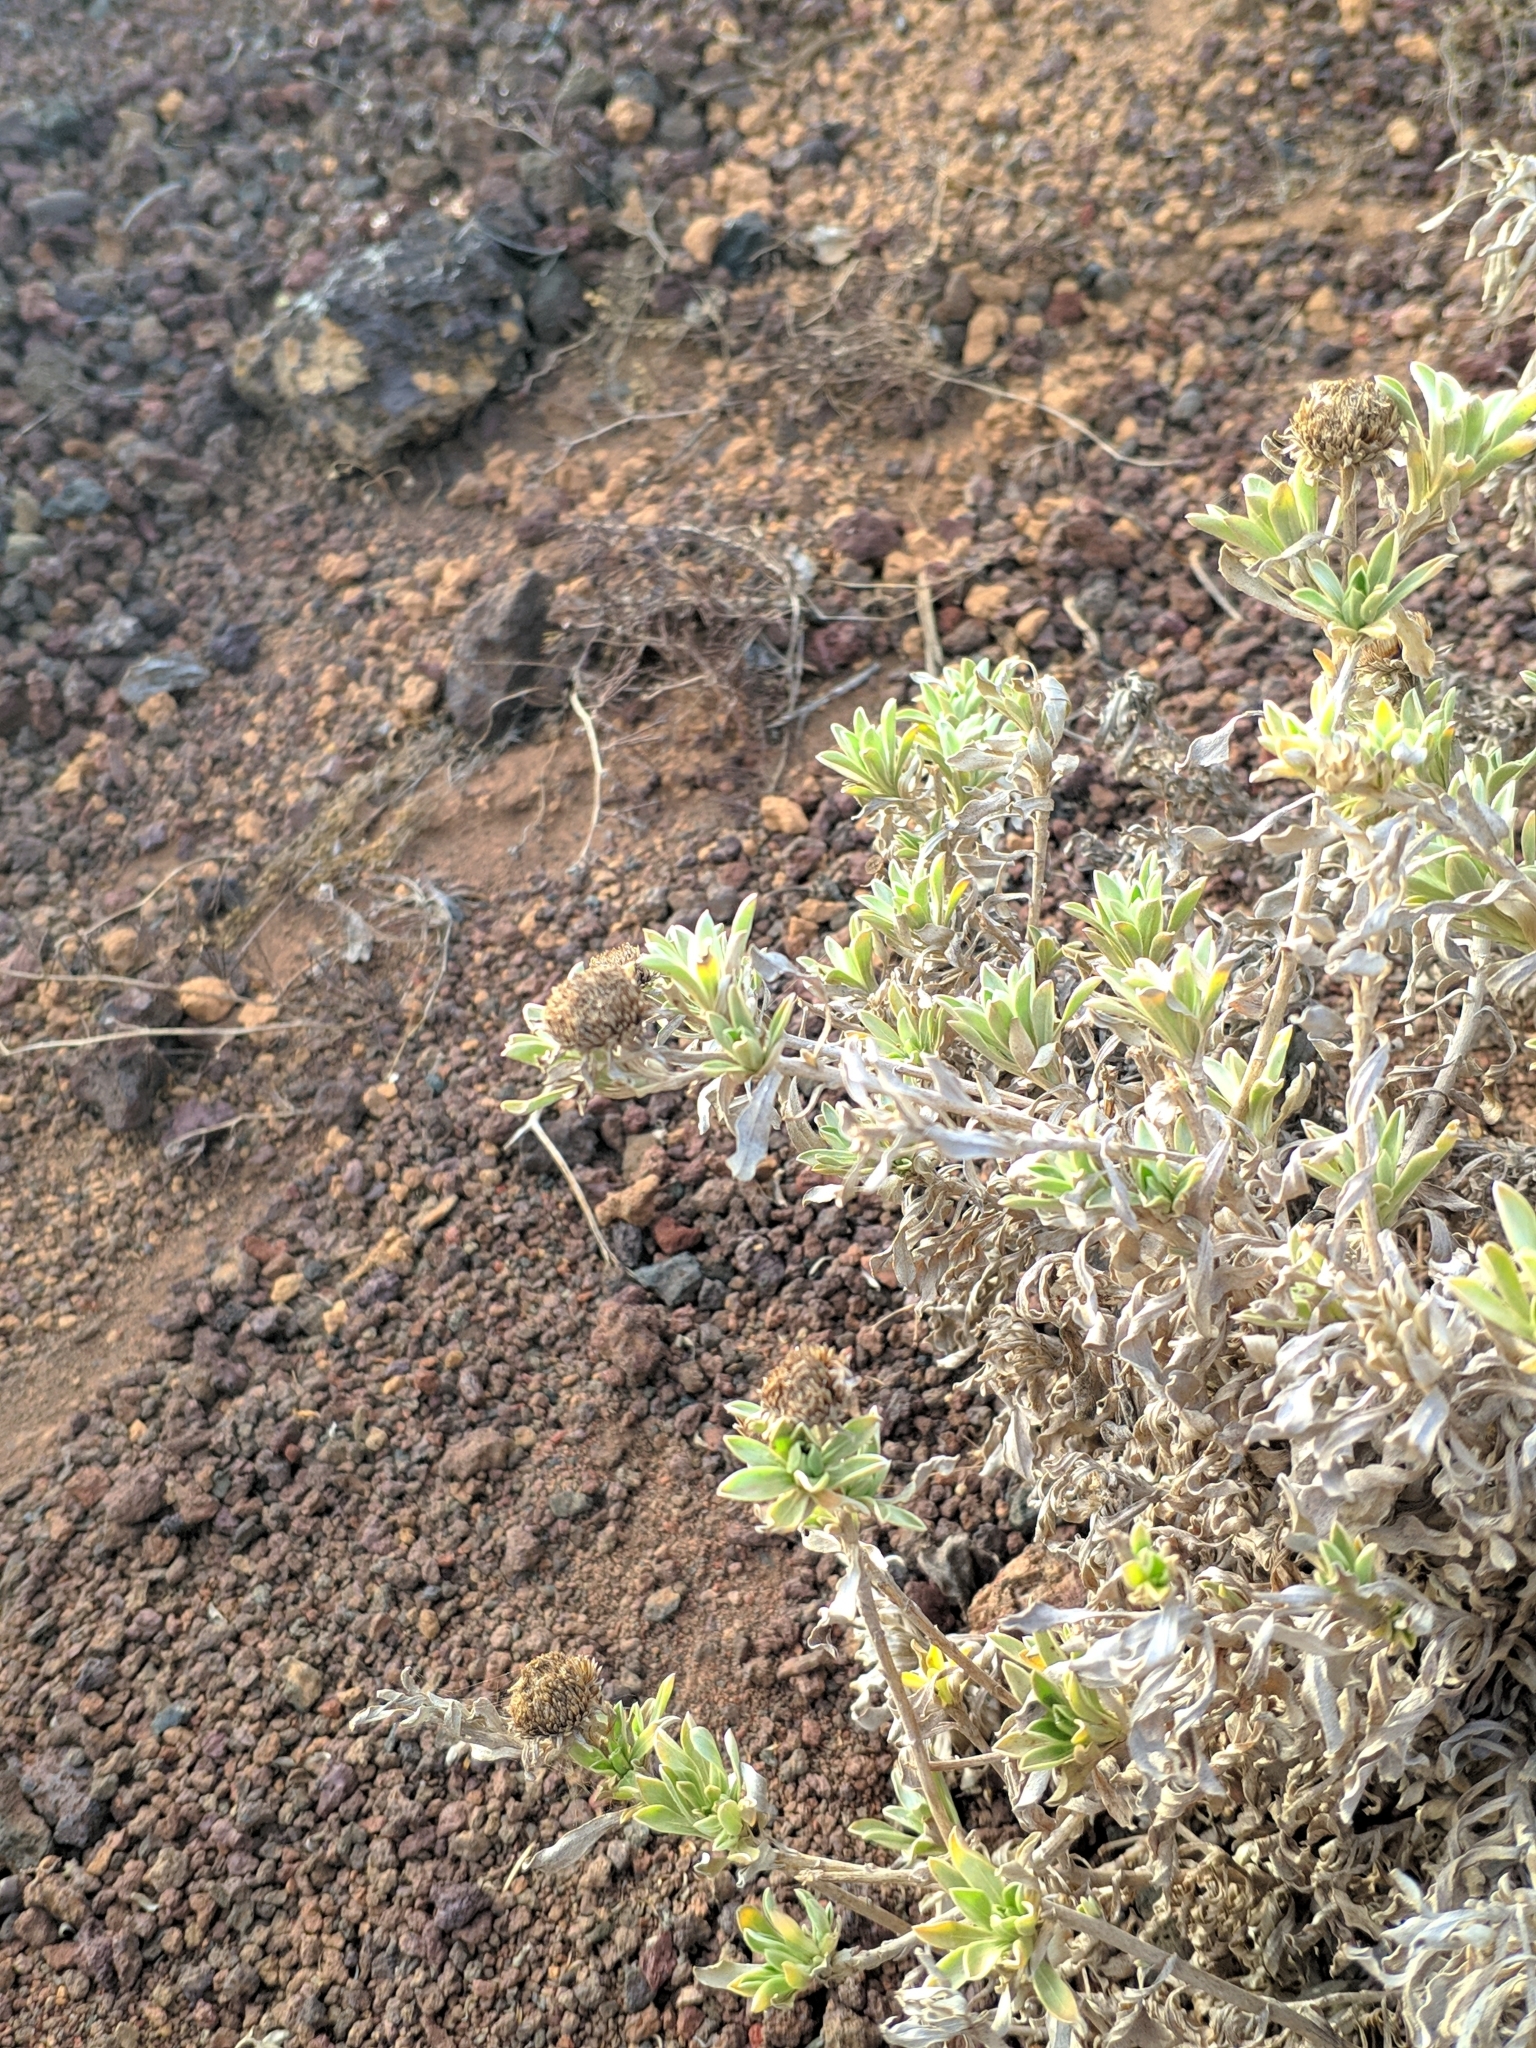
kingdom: Plantae
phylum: Tracheophyta
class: Magnoliopsida
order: Asterales
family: Asteraceae
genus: Asteriscus
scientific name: Asteriscus intermedius
